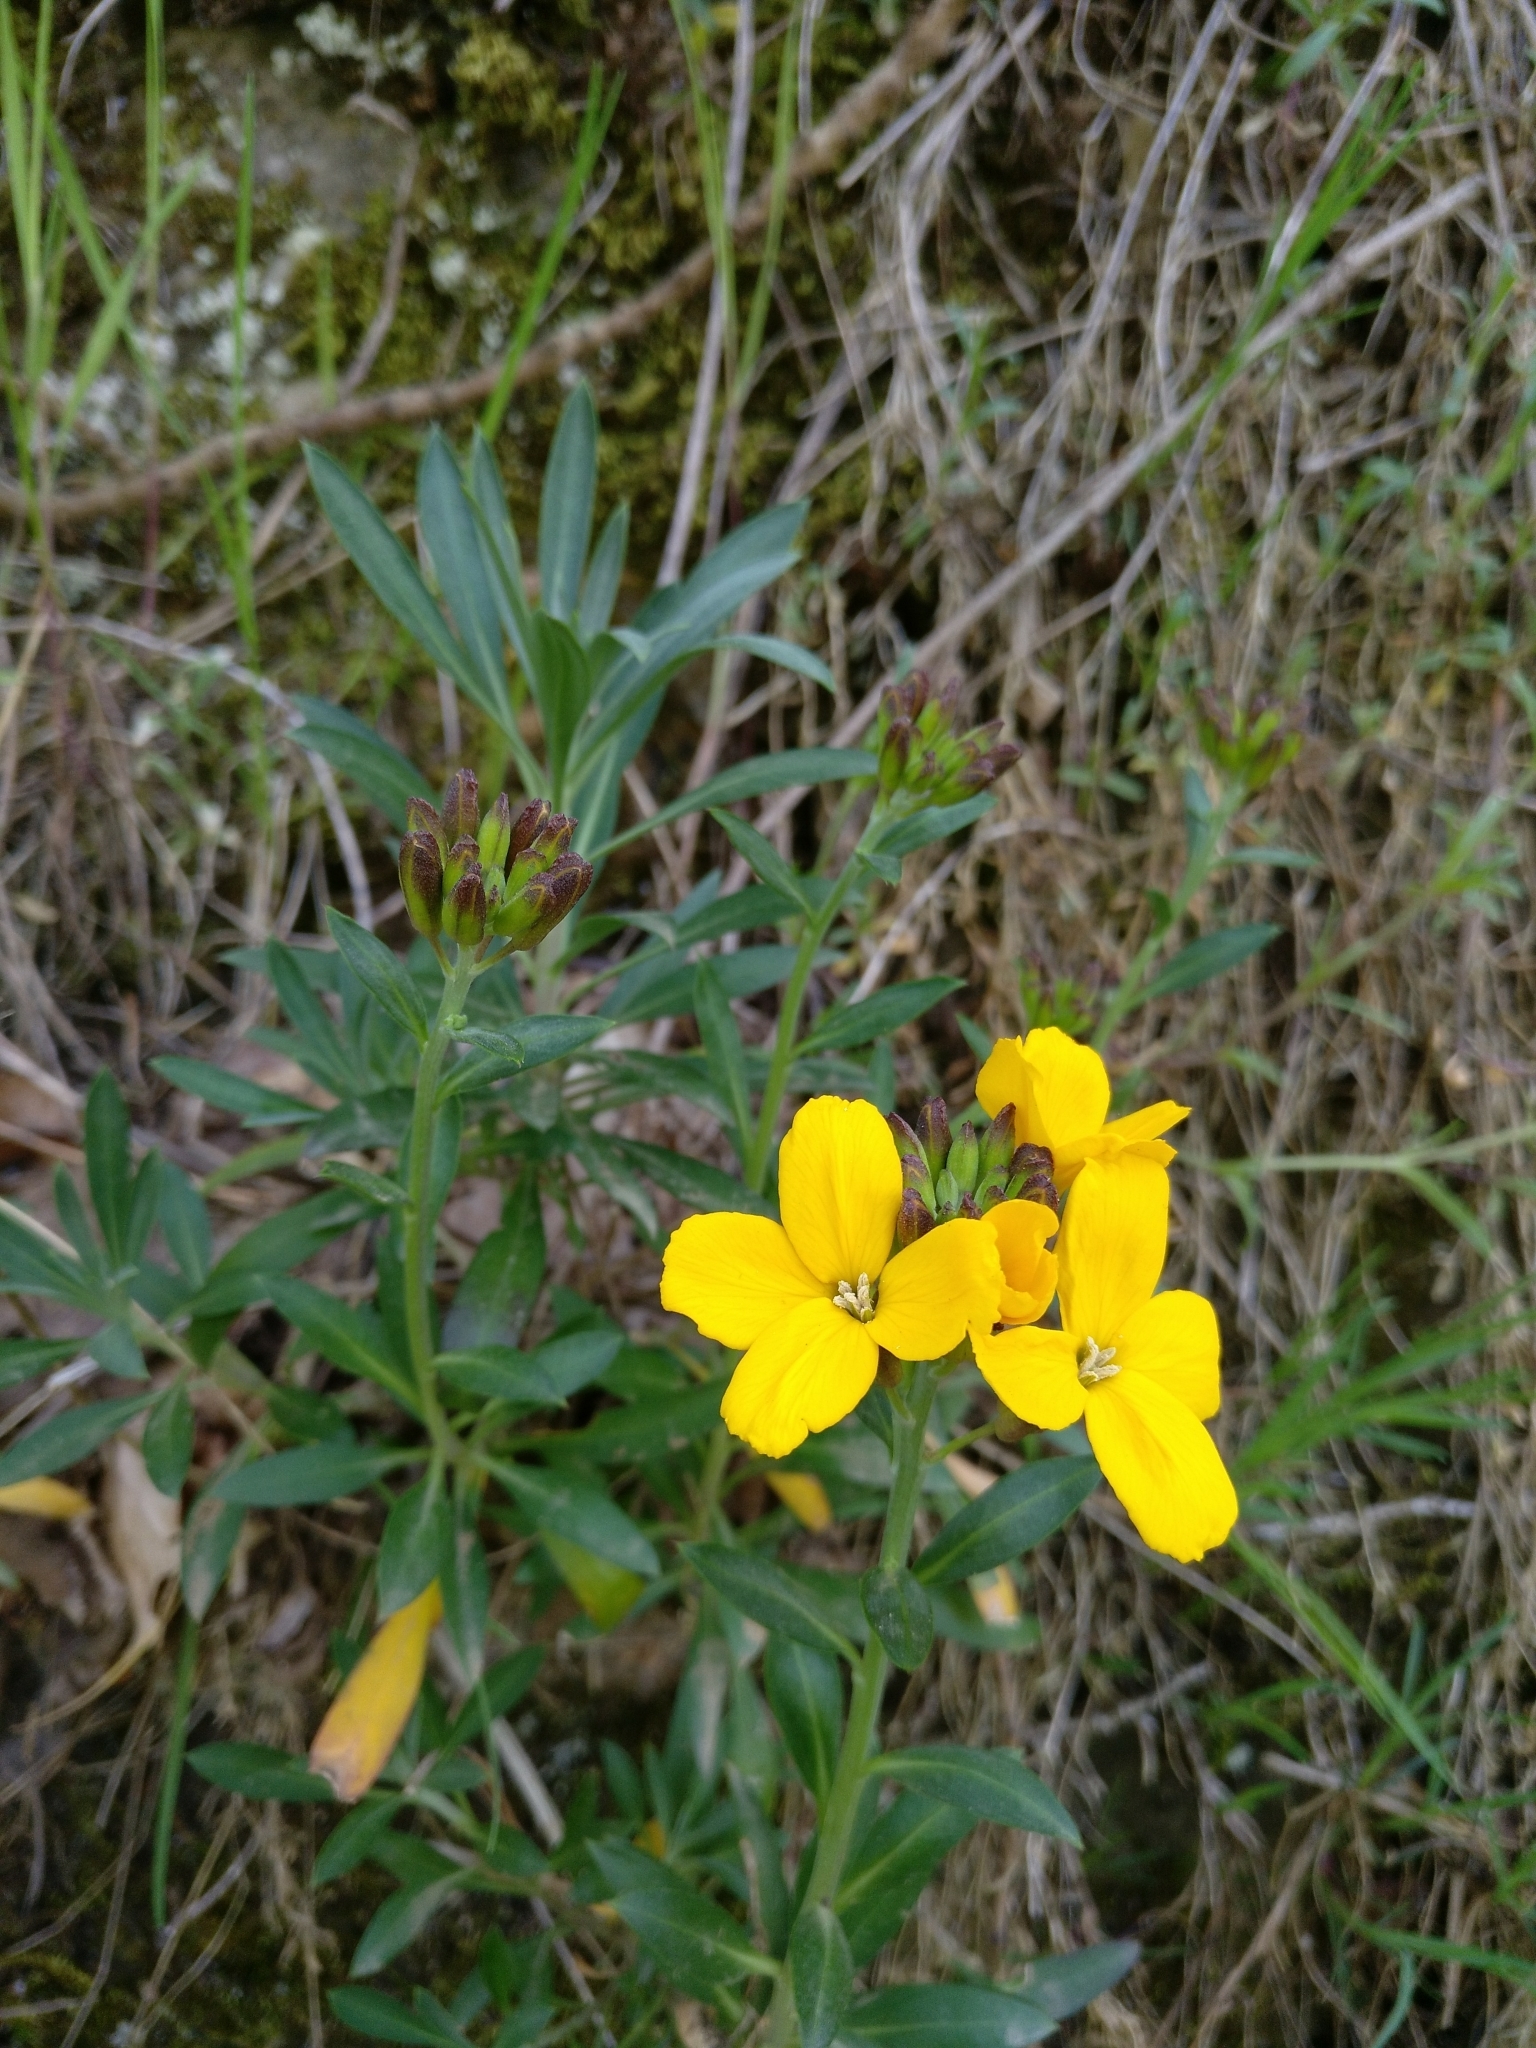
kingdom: Plantae
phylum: Tracheophyta
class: Magnoliopsida
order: Brassicales
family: Brassicaceae
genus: Erysimum
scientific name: Erysimum cheiri
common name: Wallflower
